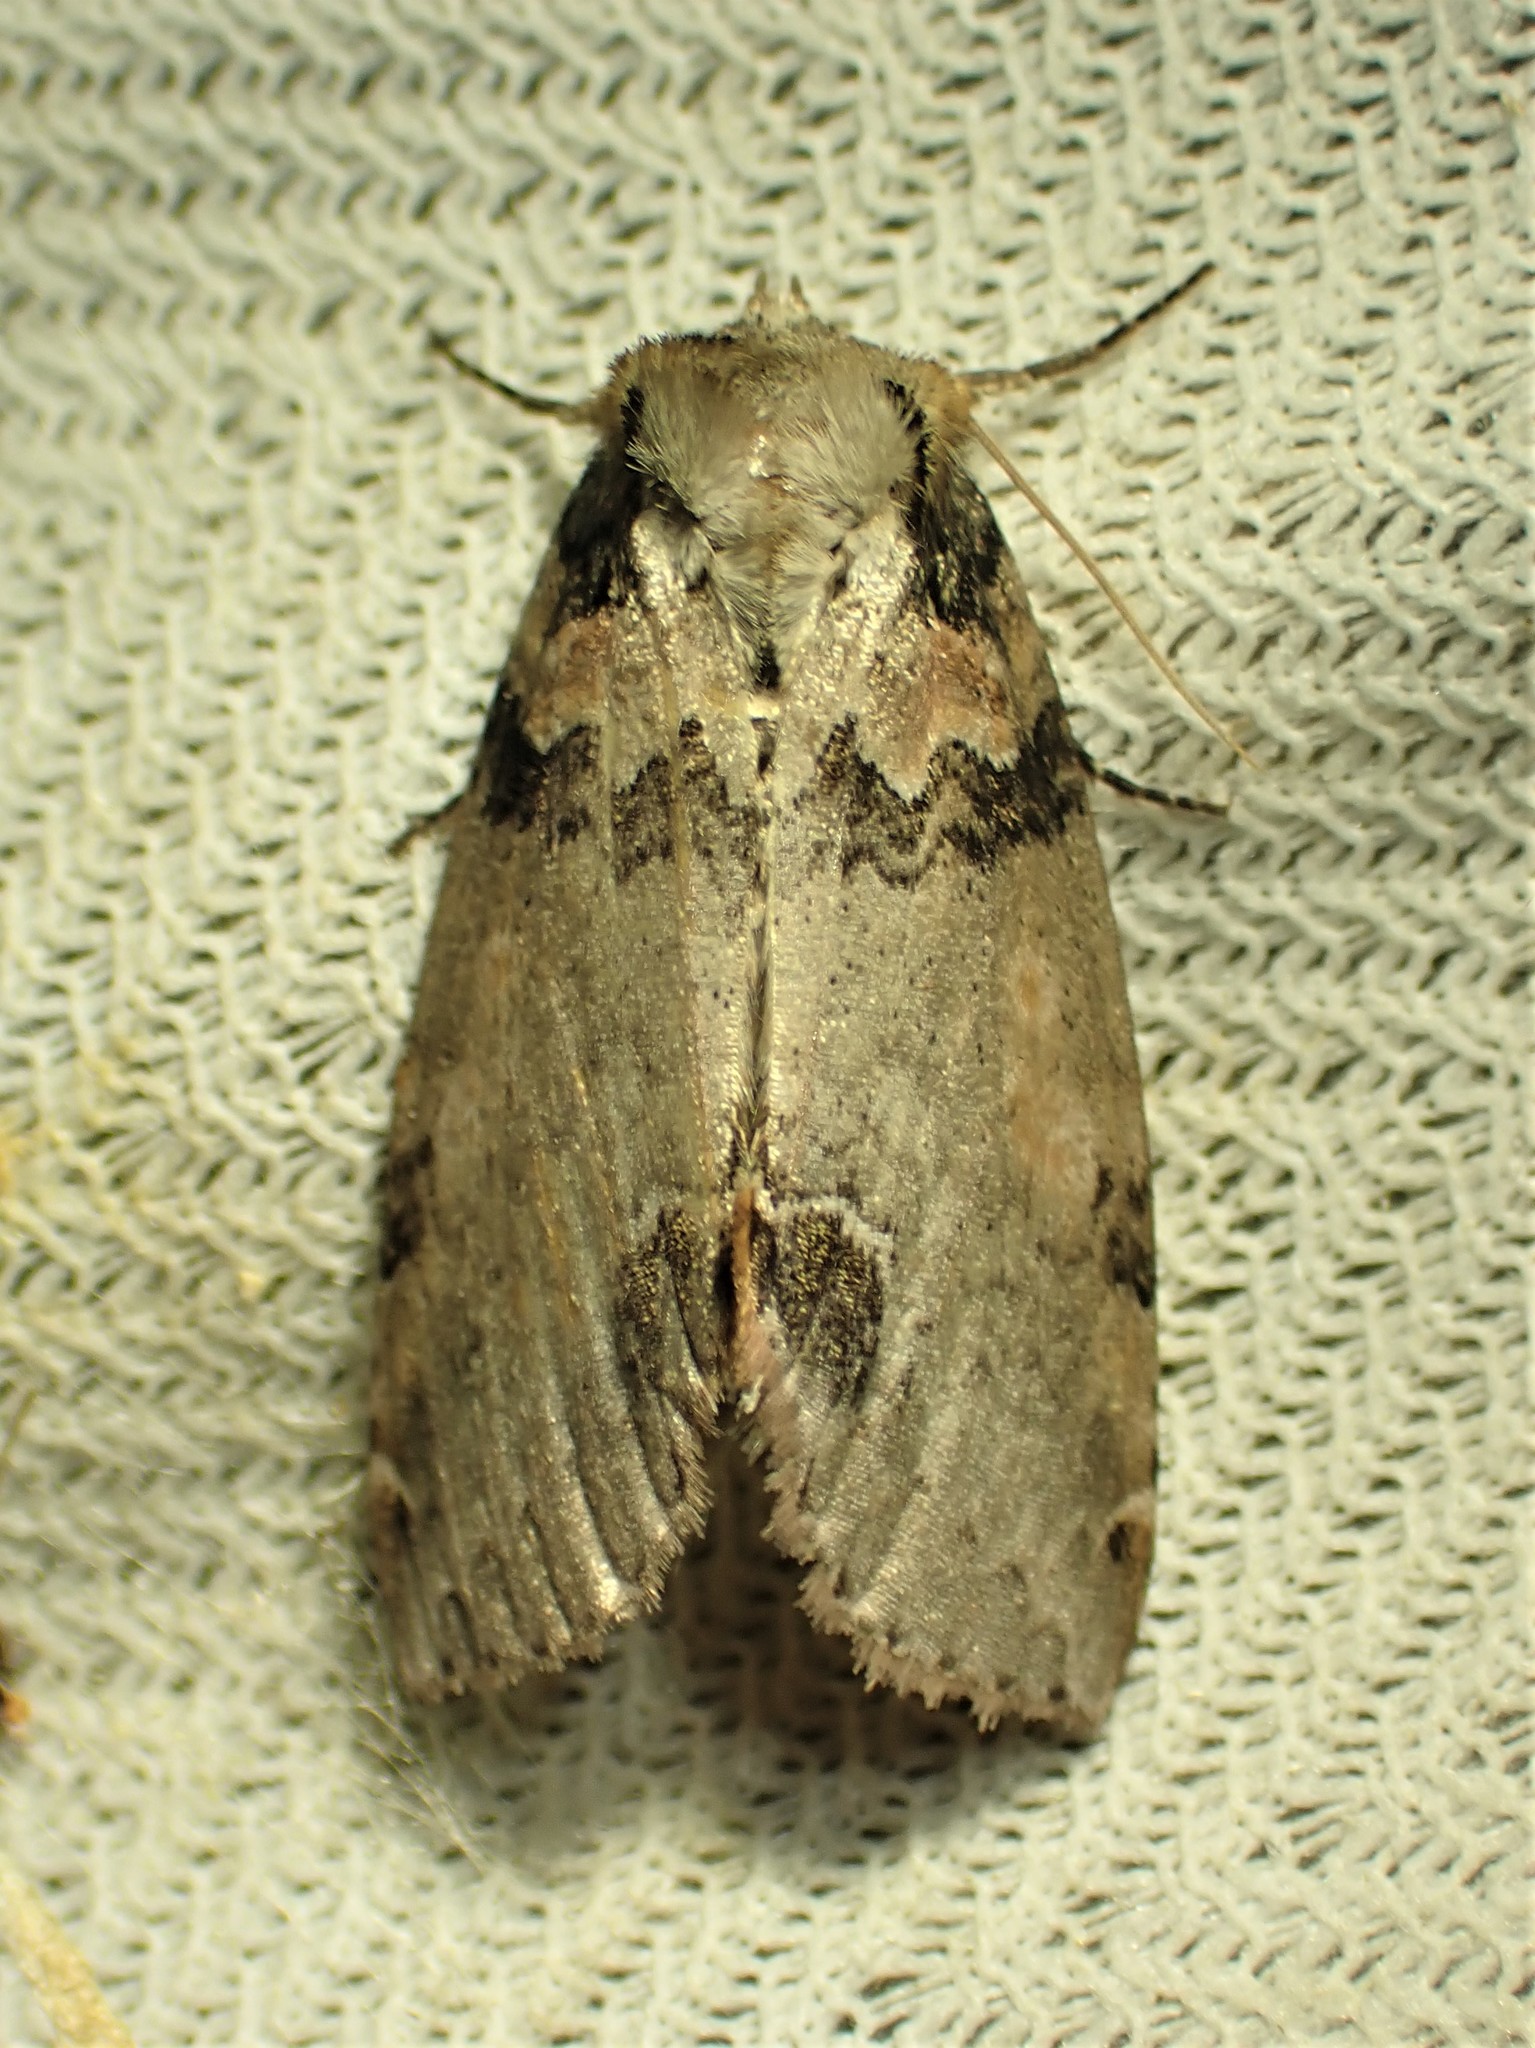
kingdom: Animalia
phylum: Arthropoda
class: Insecta
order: Lepidoptera
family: Drepanidae
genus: Pseudothyatira
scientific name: Pseudothyatira cymatophoroides
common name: Tufted thyatirid moth
